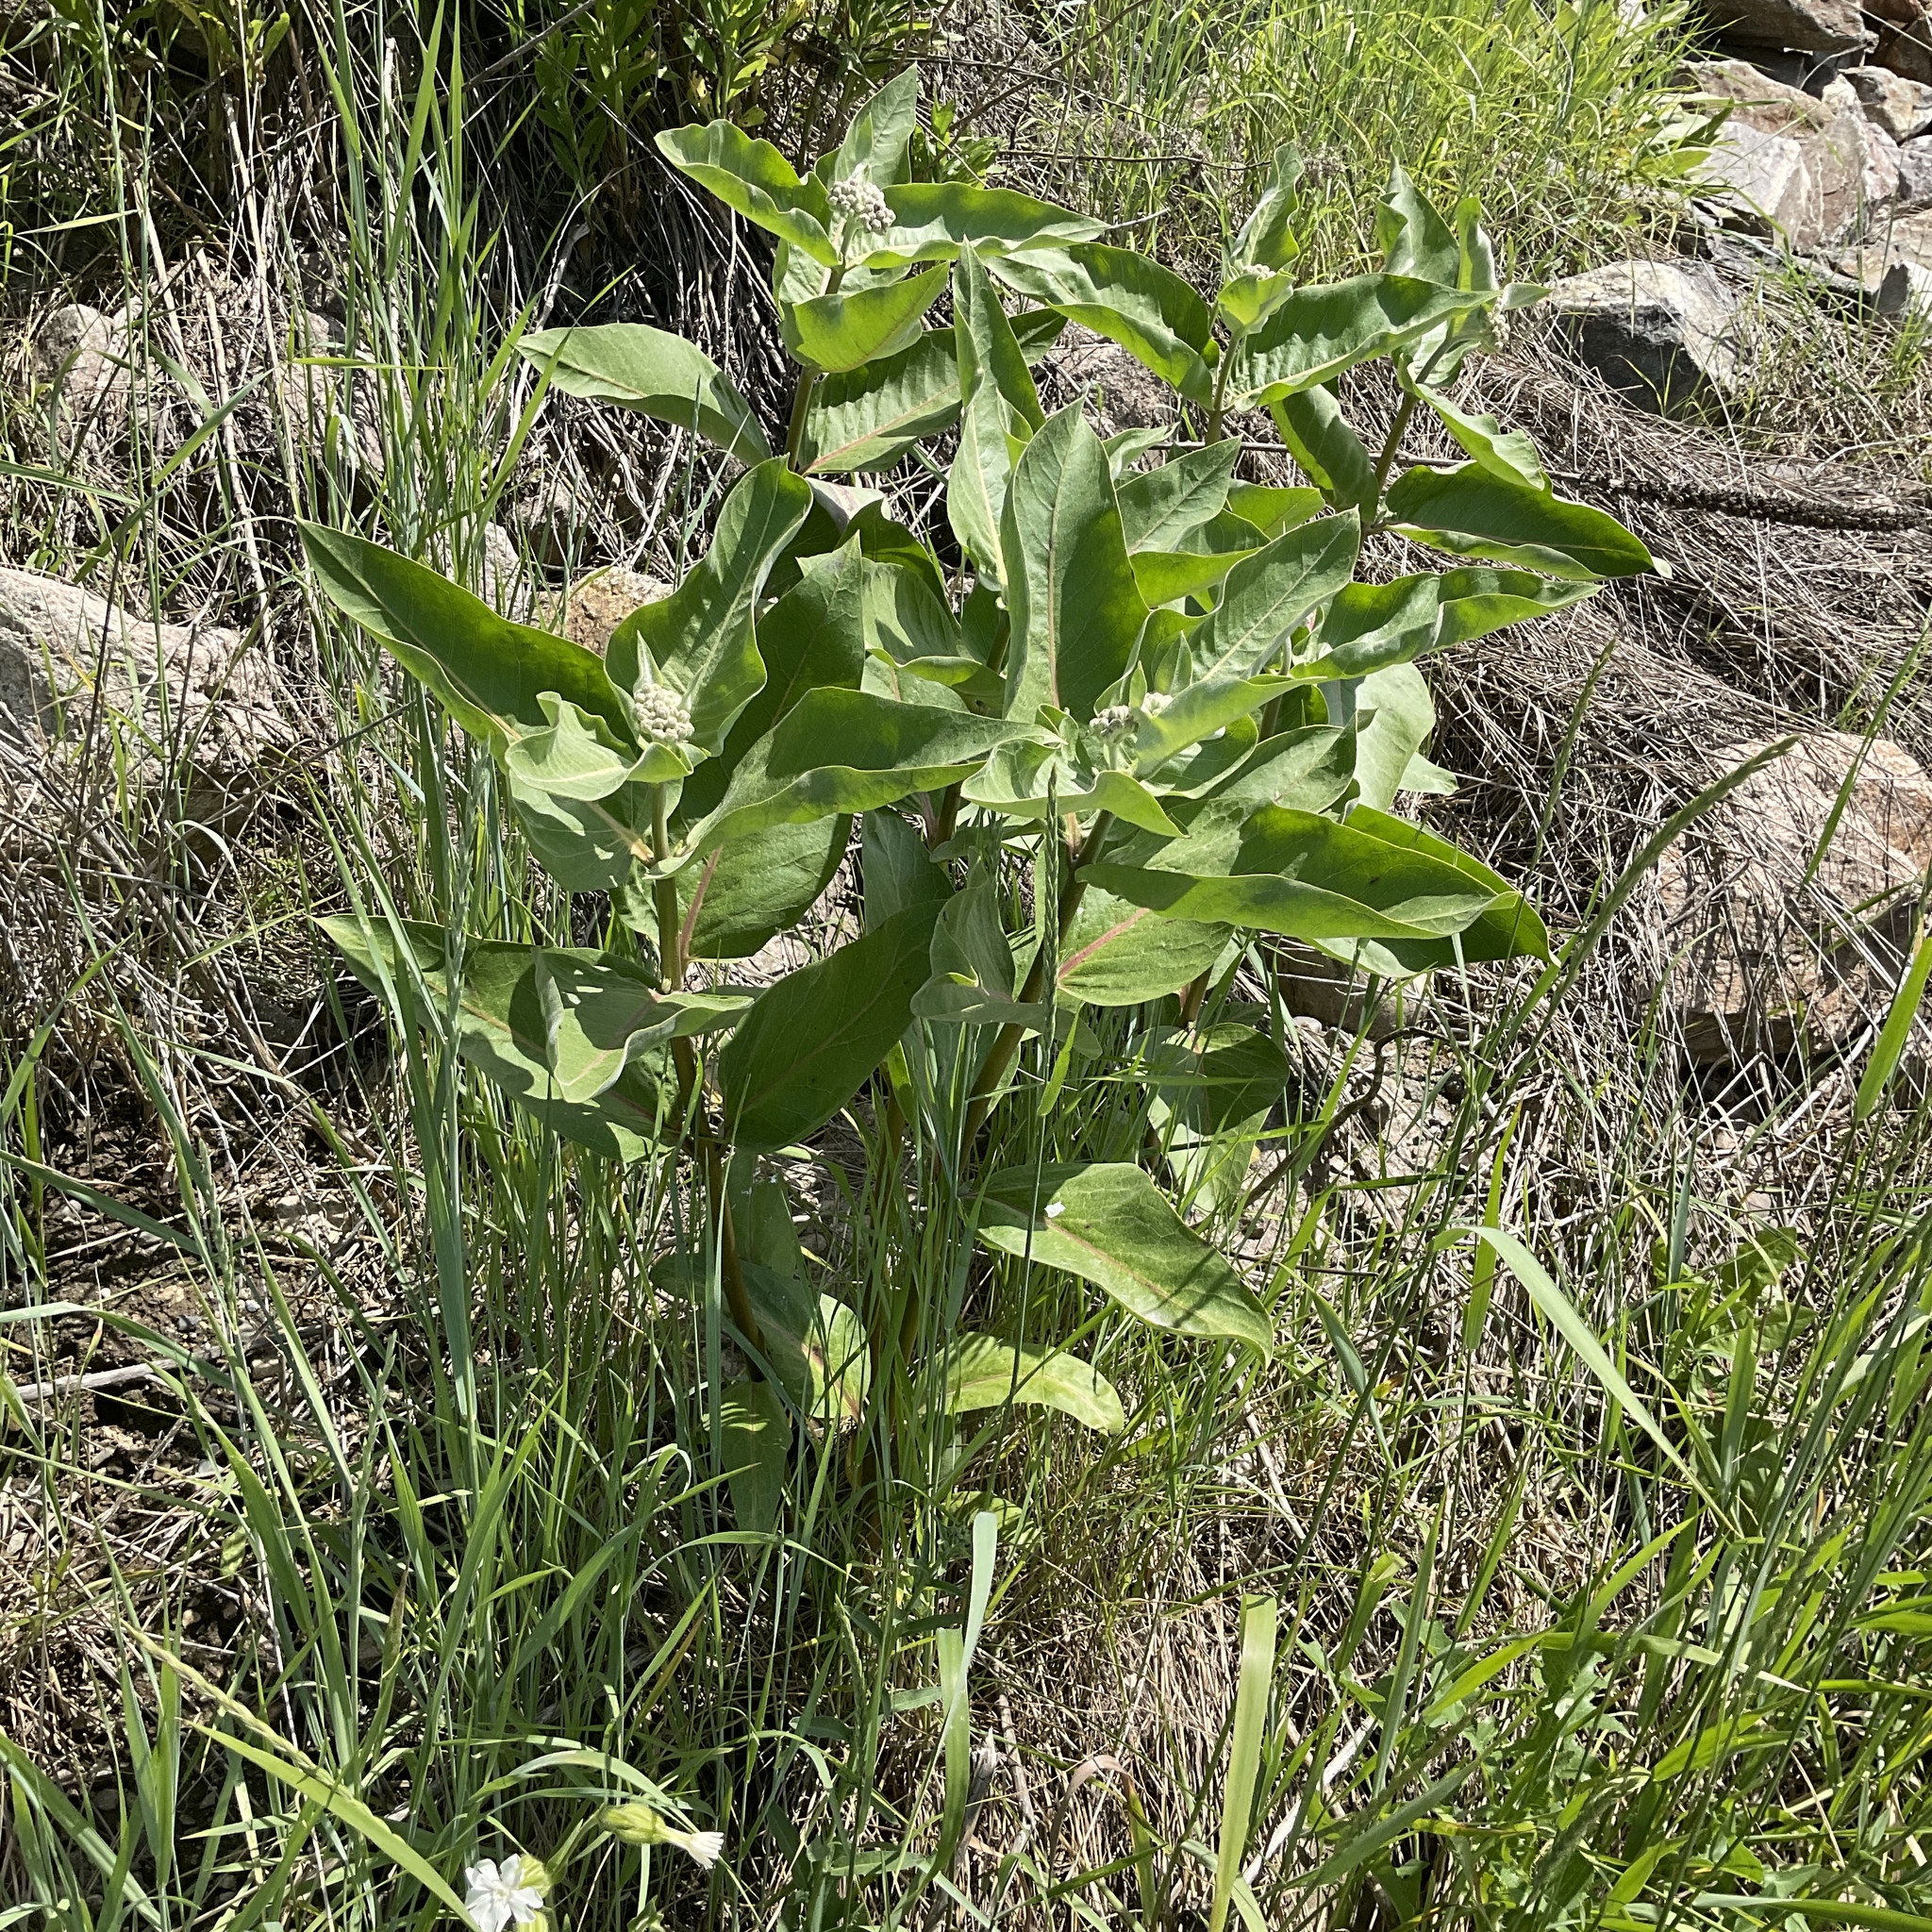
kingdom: Plantae
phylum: Tracheophyta
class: Magnoliopsida
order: Gentianales
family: Apocynaceae
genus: Asclepias
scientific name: Asclepias speciosa
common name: Showy milkweed
